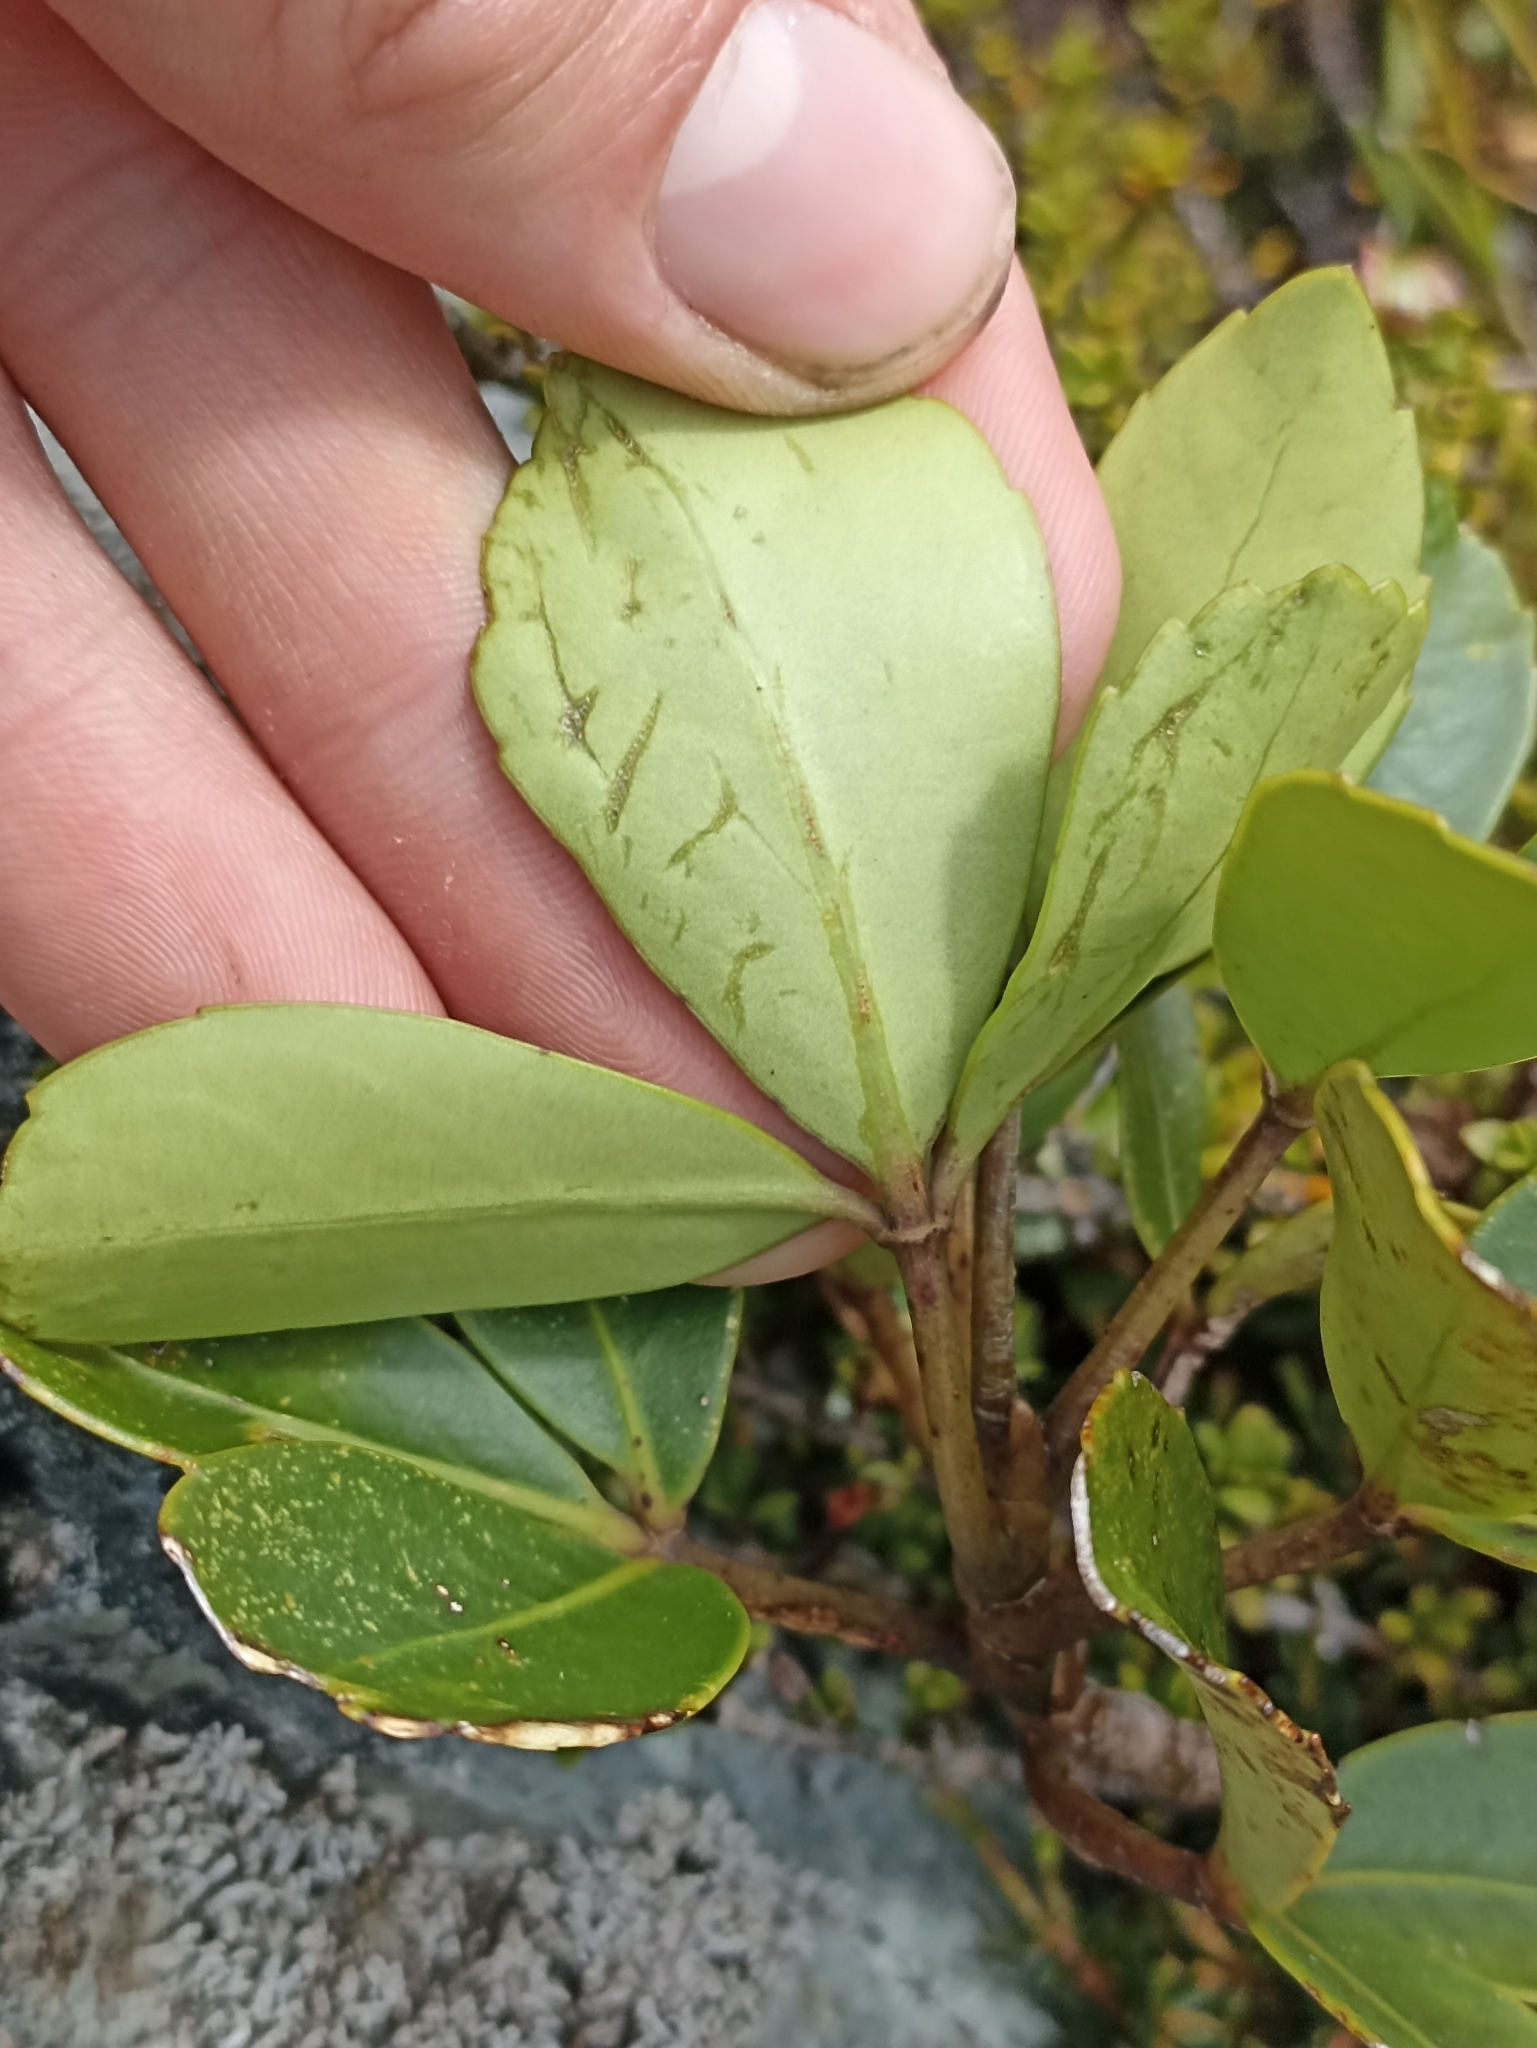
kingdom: Plantae
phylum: Tracheophyta
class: Magnoliopsida
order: Apiales
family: Araliaceae
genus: Neopanax
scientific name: Neopanax colensoi
